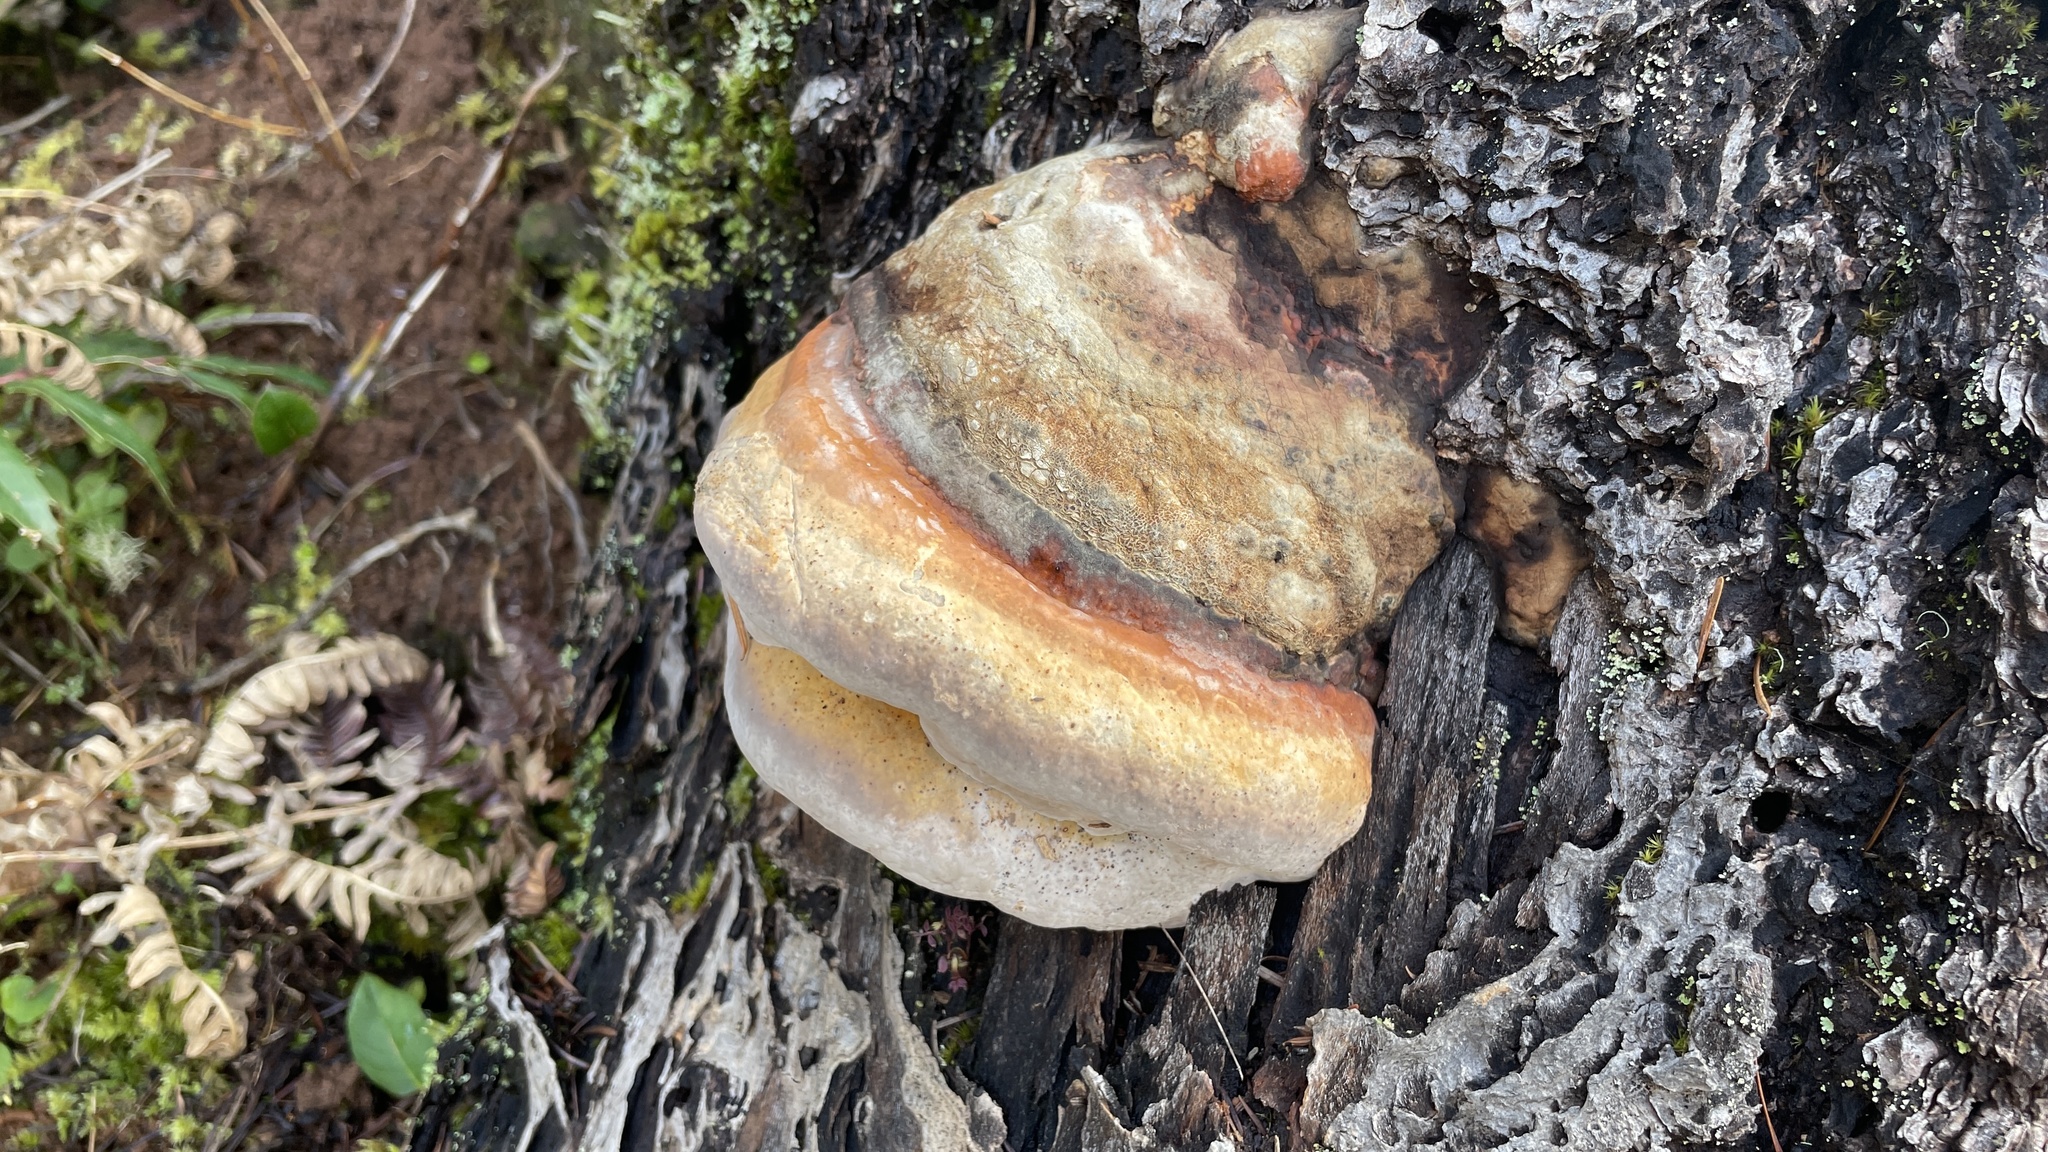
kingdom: Fungi
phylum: Basidiomycota
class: Agaricomycetes
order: Polyporales
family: Fomitopsidaceae
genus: Fomitopsis
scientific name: Fomitopsis mounceae
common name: Northern red belt
